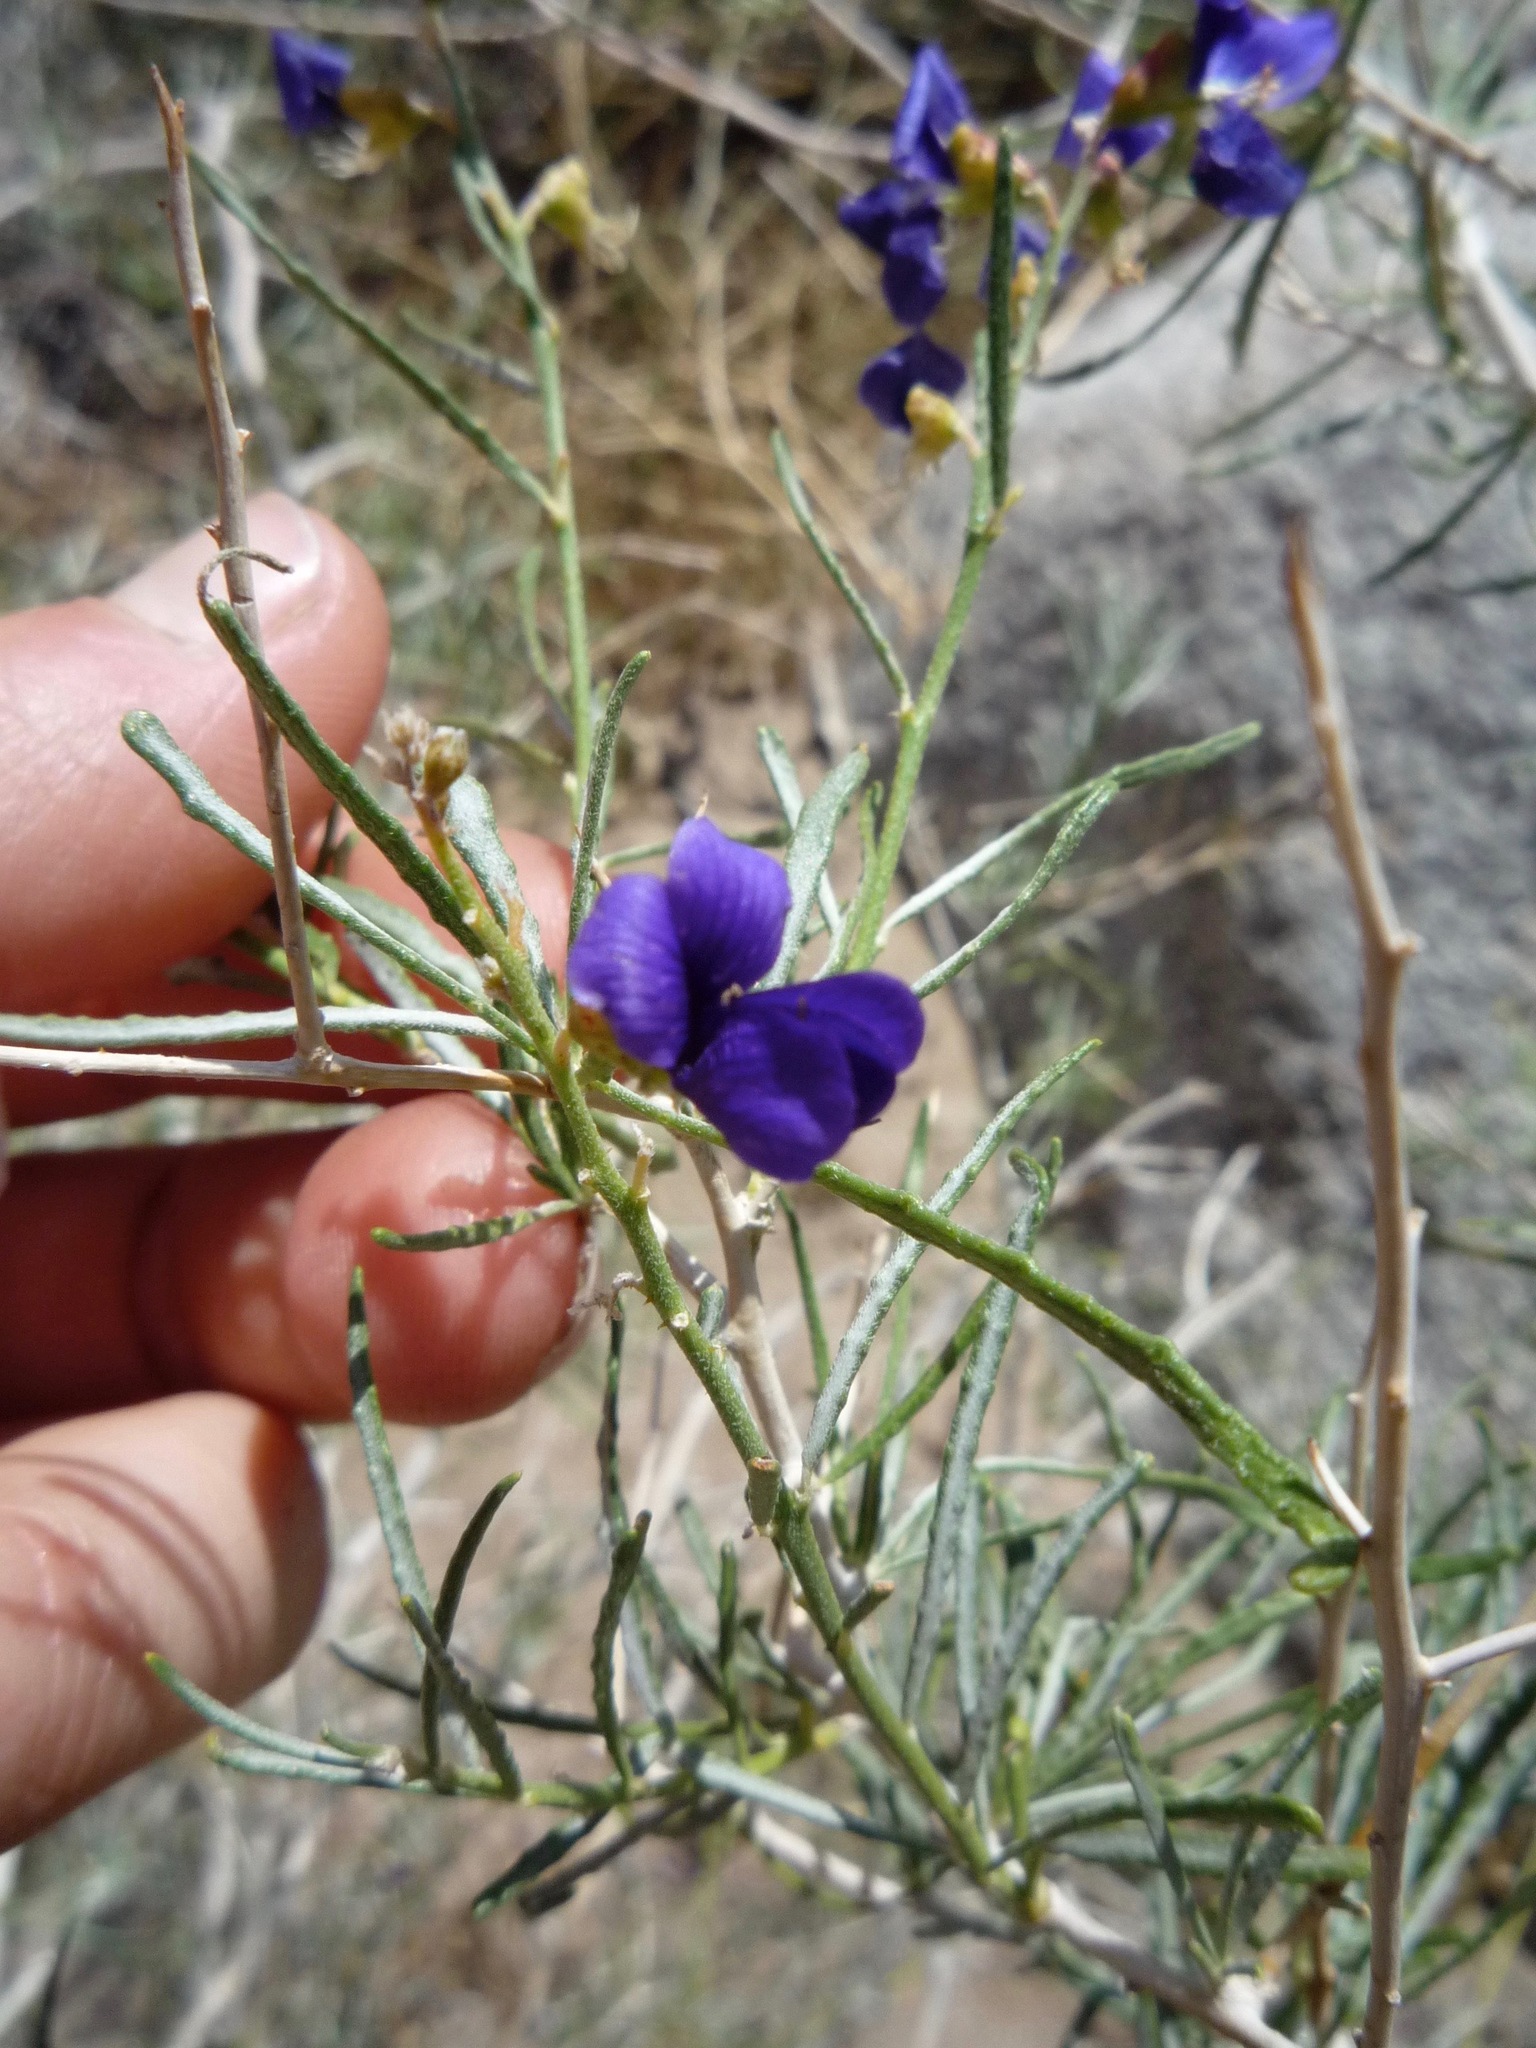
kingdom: Plantae
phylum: Tracheophyta
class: Magnoliopsida
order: Fabales
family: Fabaceae
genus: Psorothamnus
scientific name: Psorothamnus schottii
